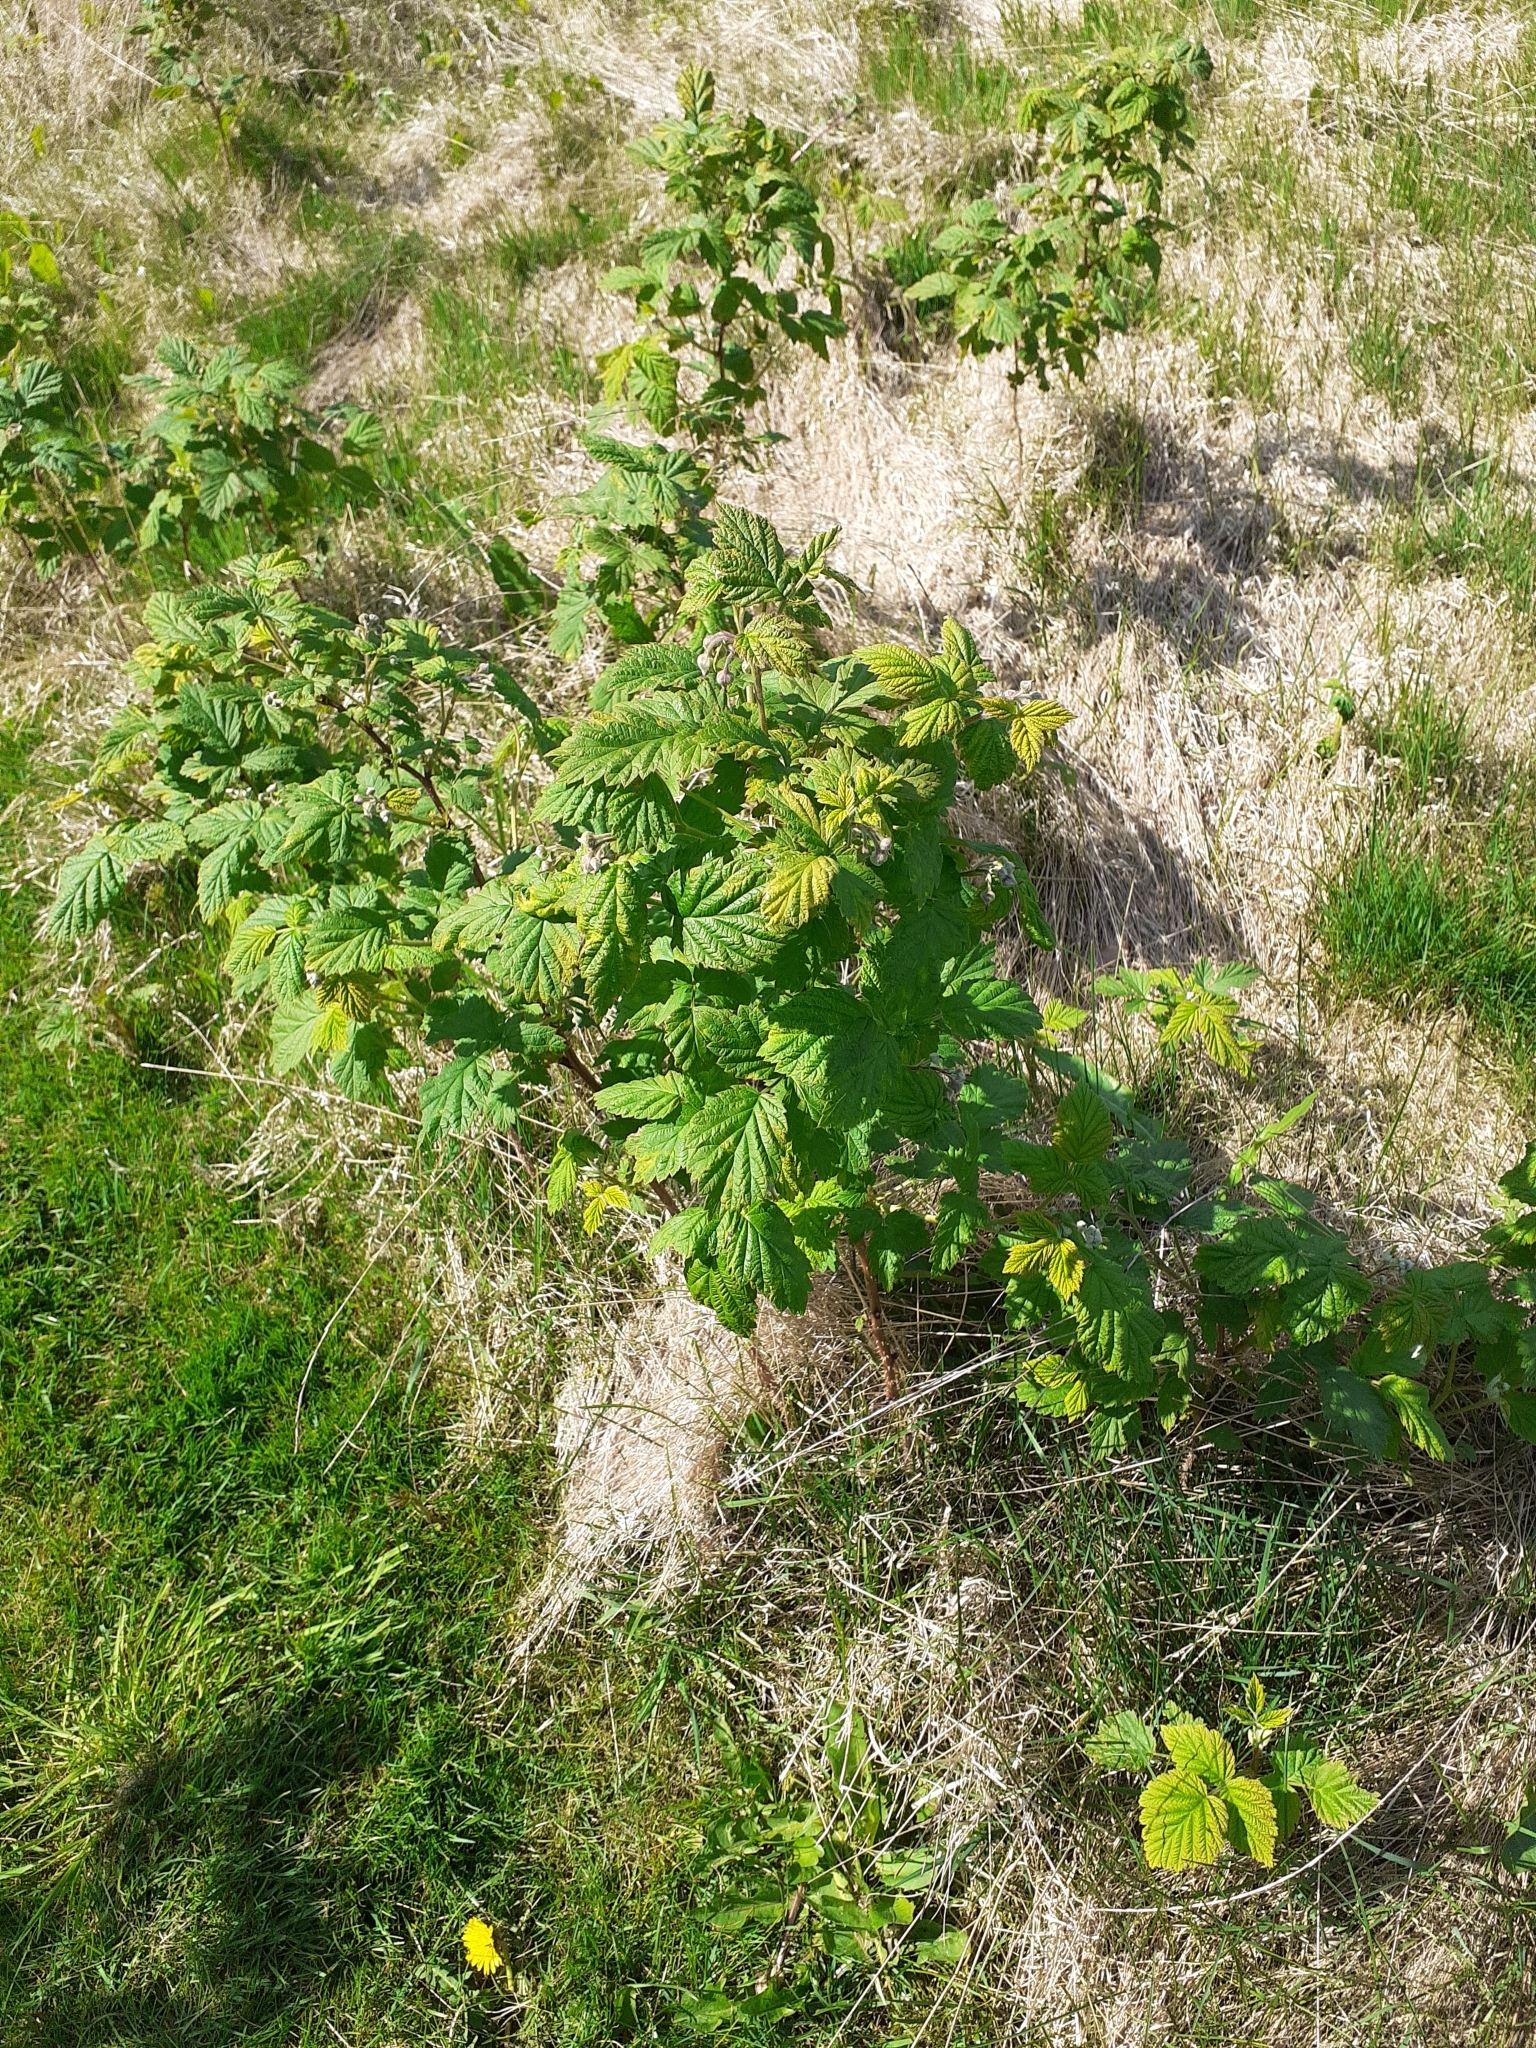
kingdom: Plantae
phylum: Tracheophyta
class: Magnoliopsida
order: Rosales
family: Rosaceae
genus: Rubus
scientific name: Rubus idaeus
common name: Raspberry
